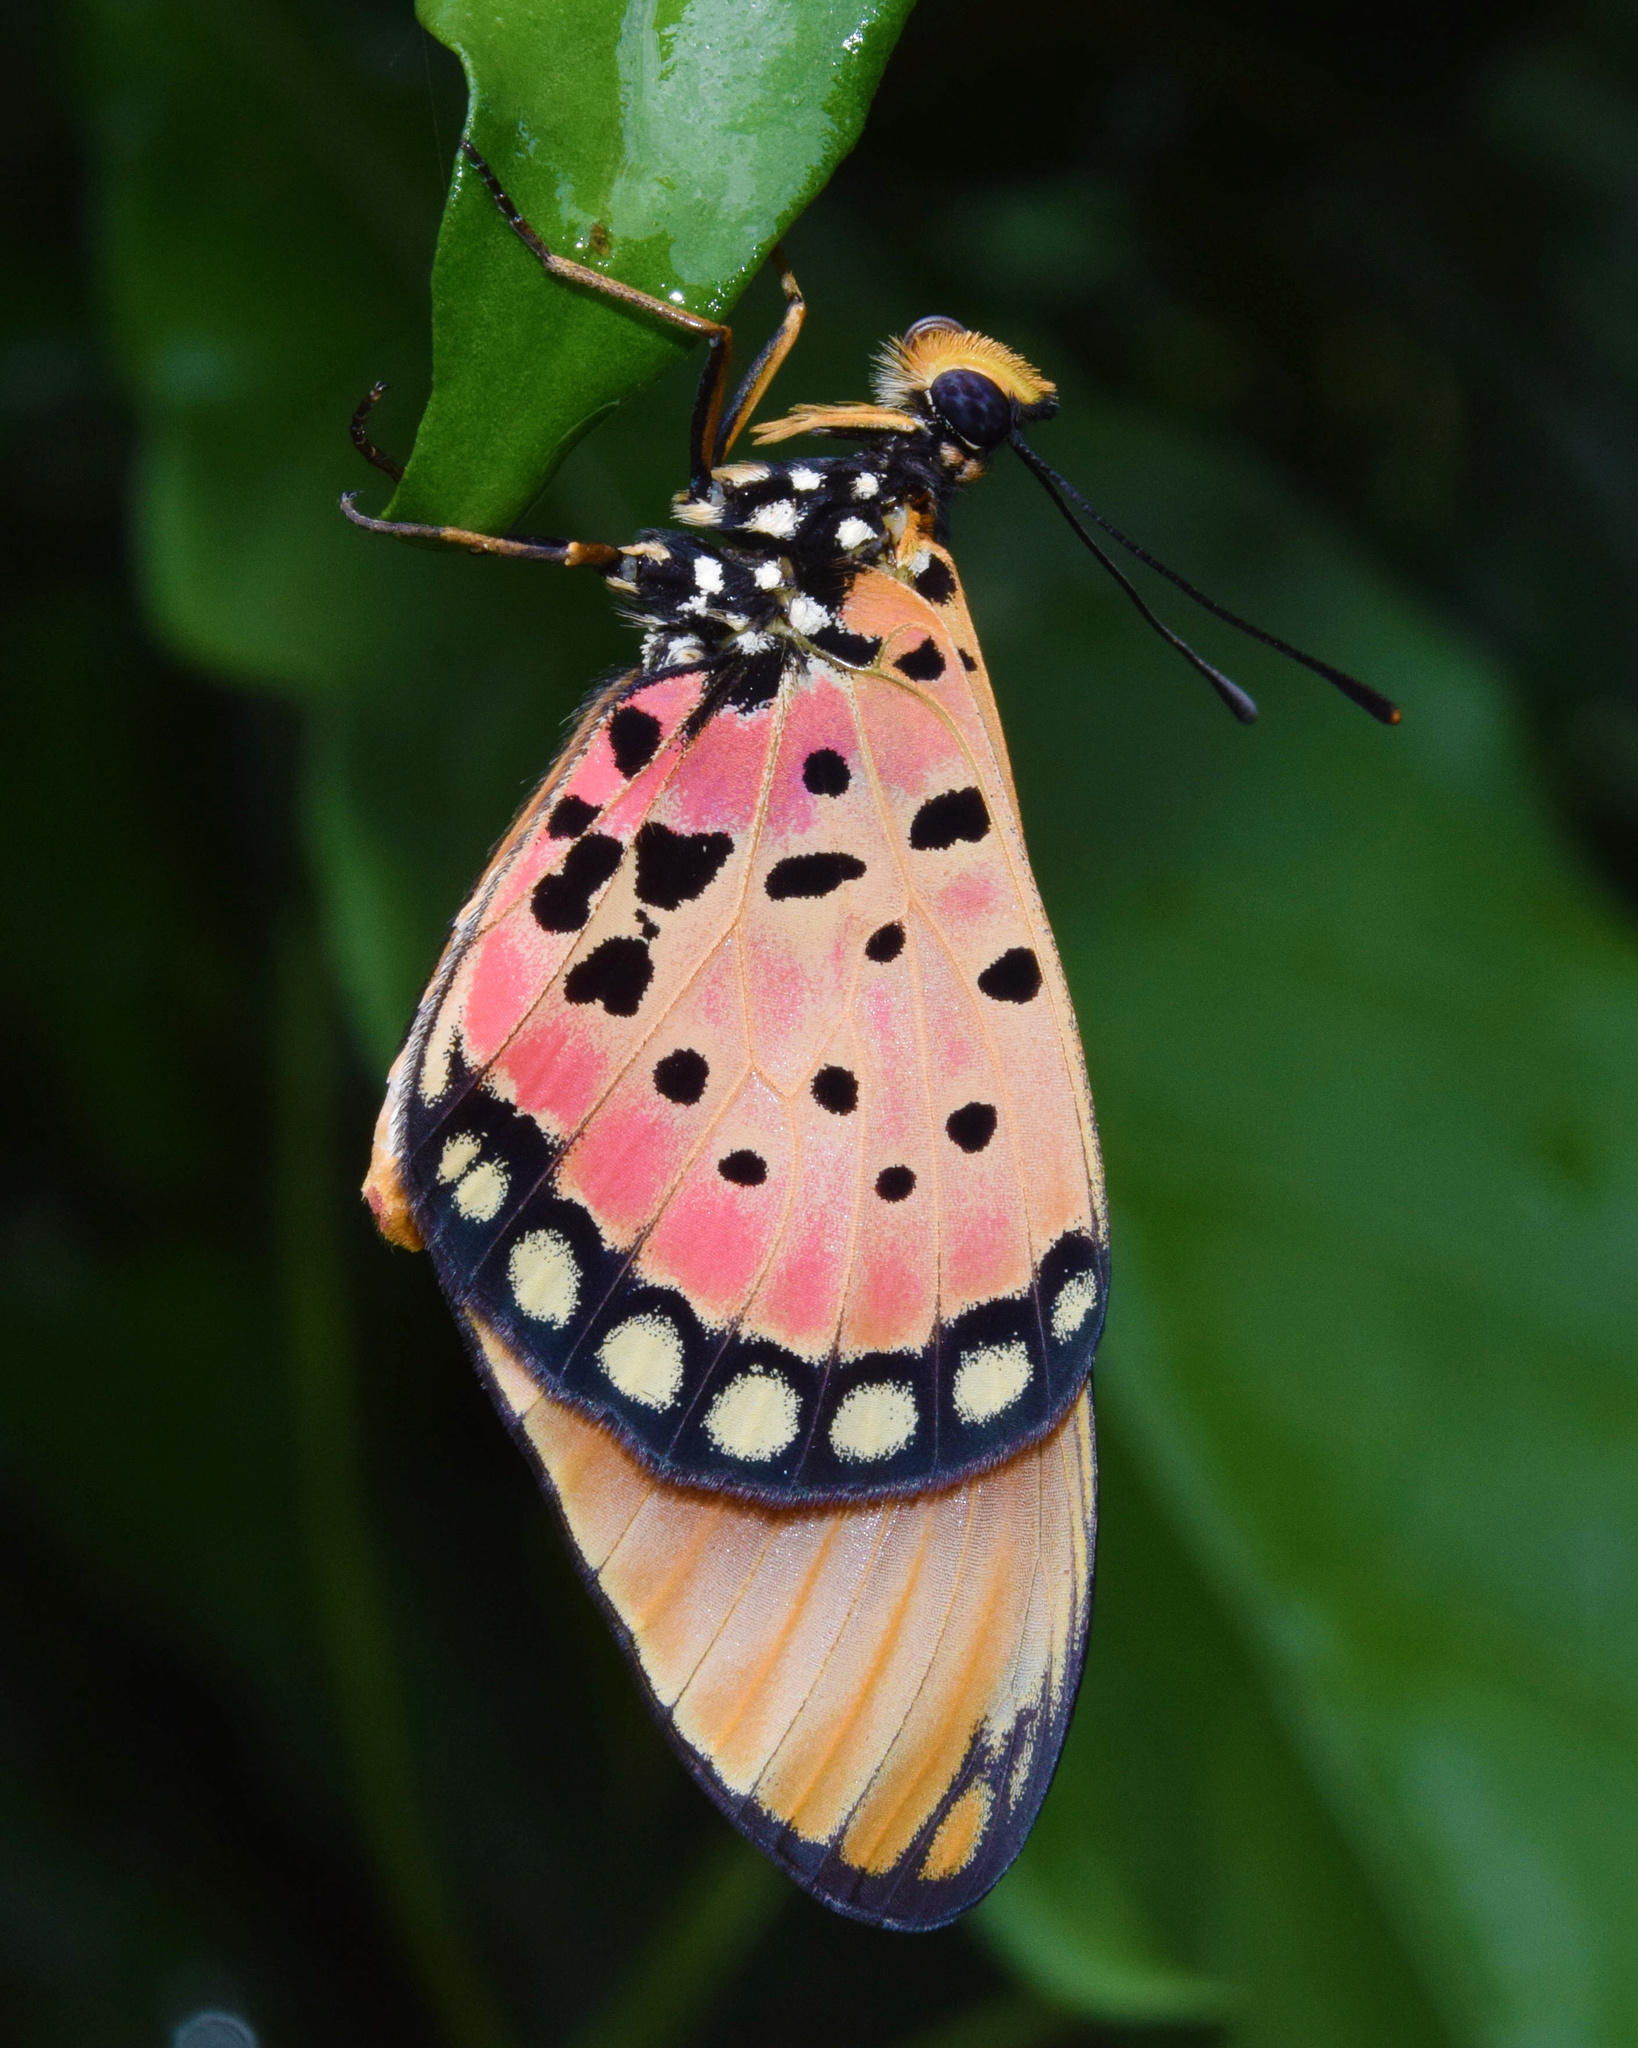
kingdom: Animalia
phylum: Arthropoda
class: Insecta
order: Lepidoptera
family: Nymphalidae
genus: Stephenia
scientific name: Stephenia
